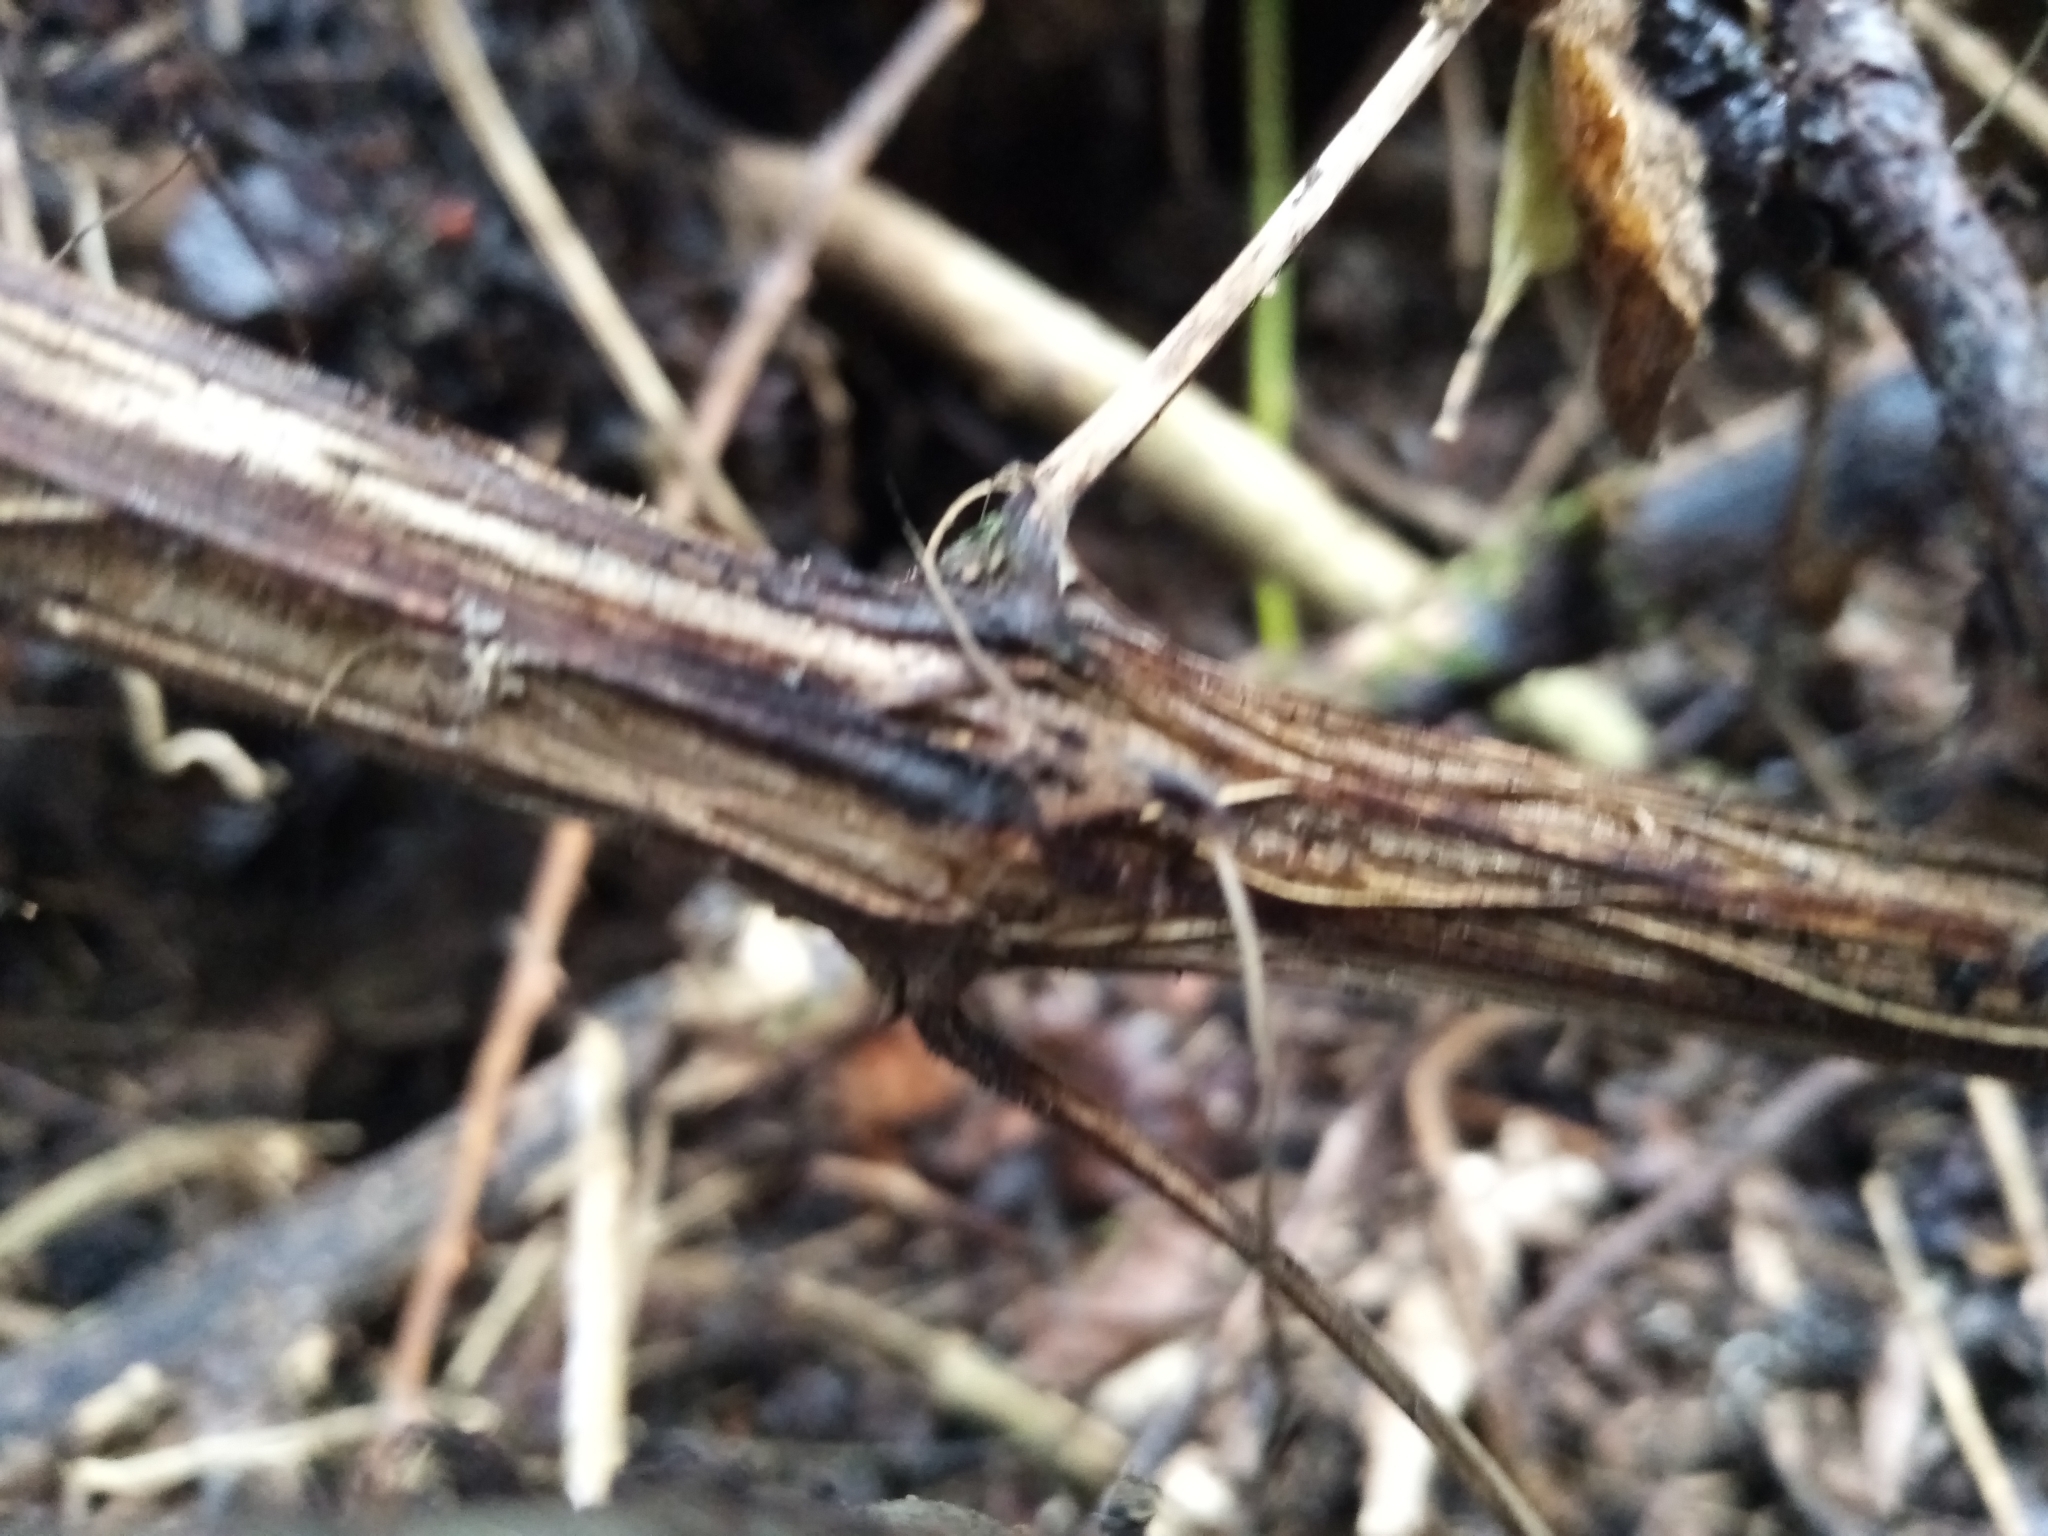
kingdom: Plantae
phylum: Tracheophyta
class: Magnoliopsida
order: Ranunculales
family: Ranunculaceae
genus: Clematis
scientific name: Clematis vitalba
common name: Evergreen clematis
